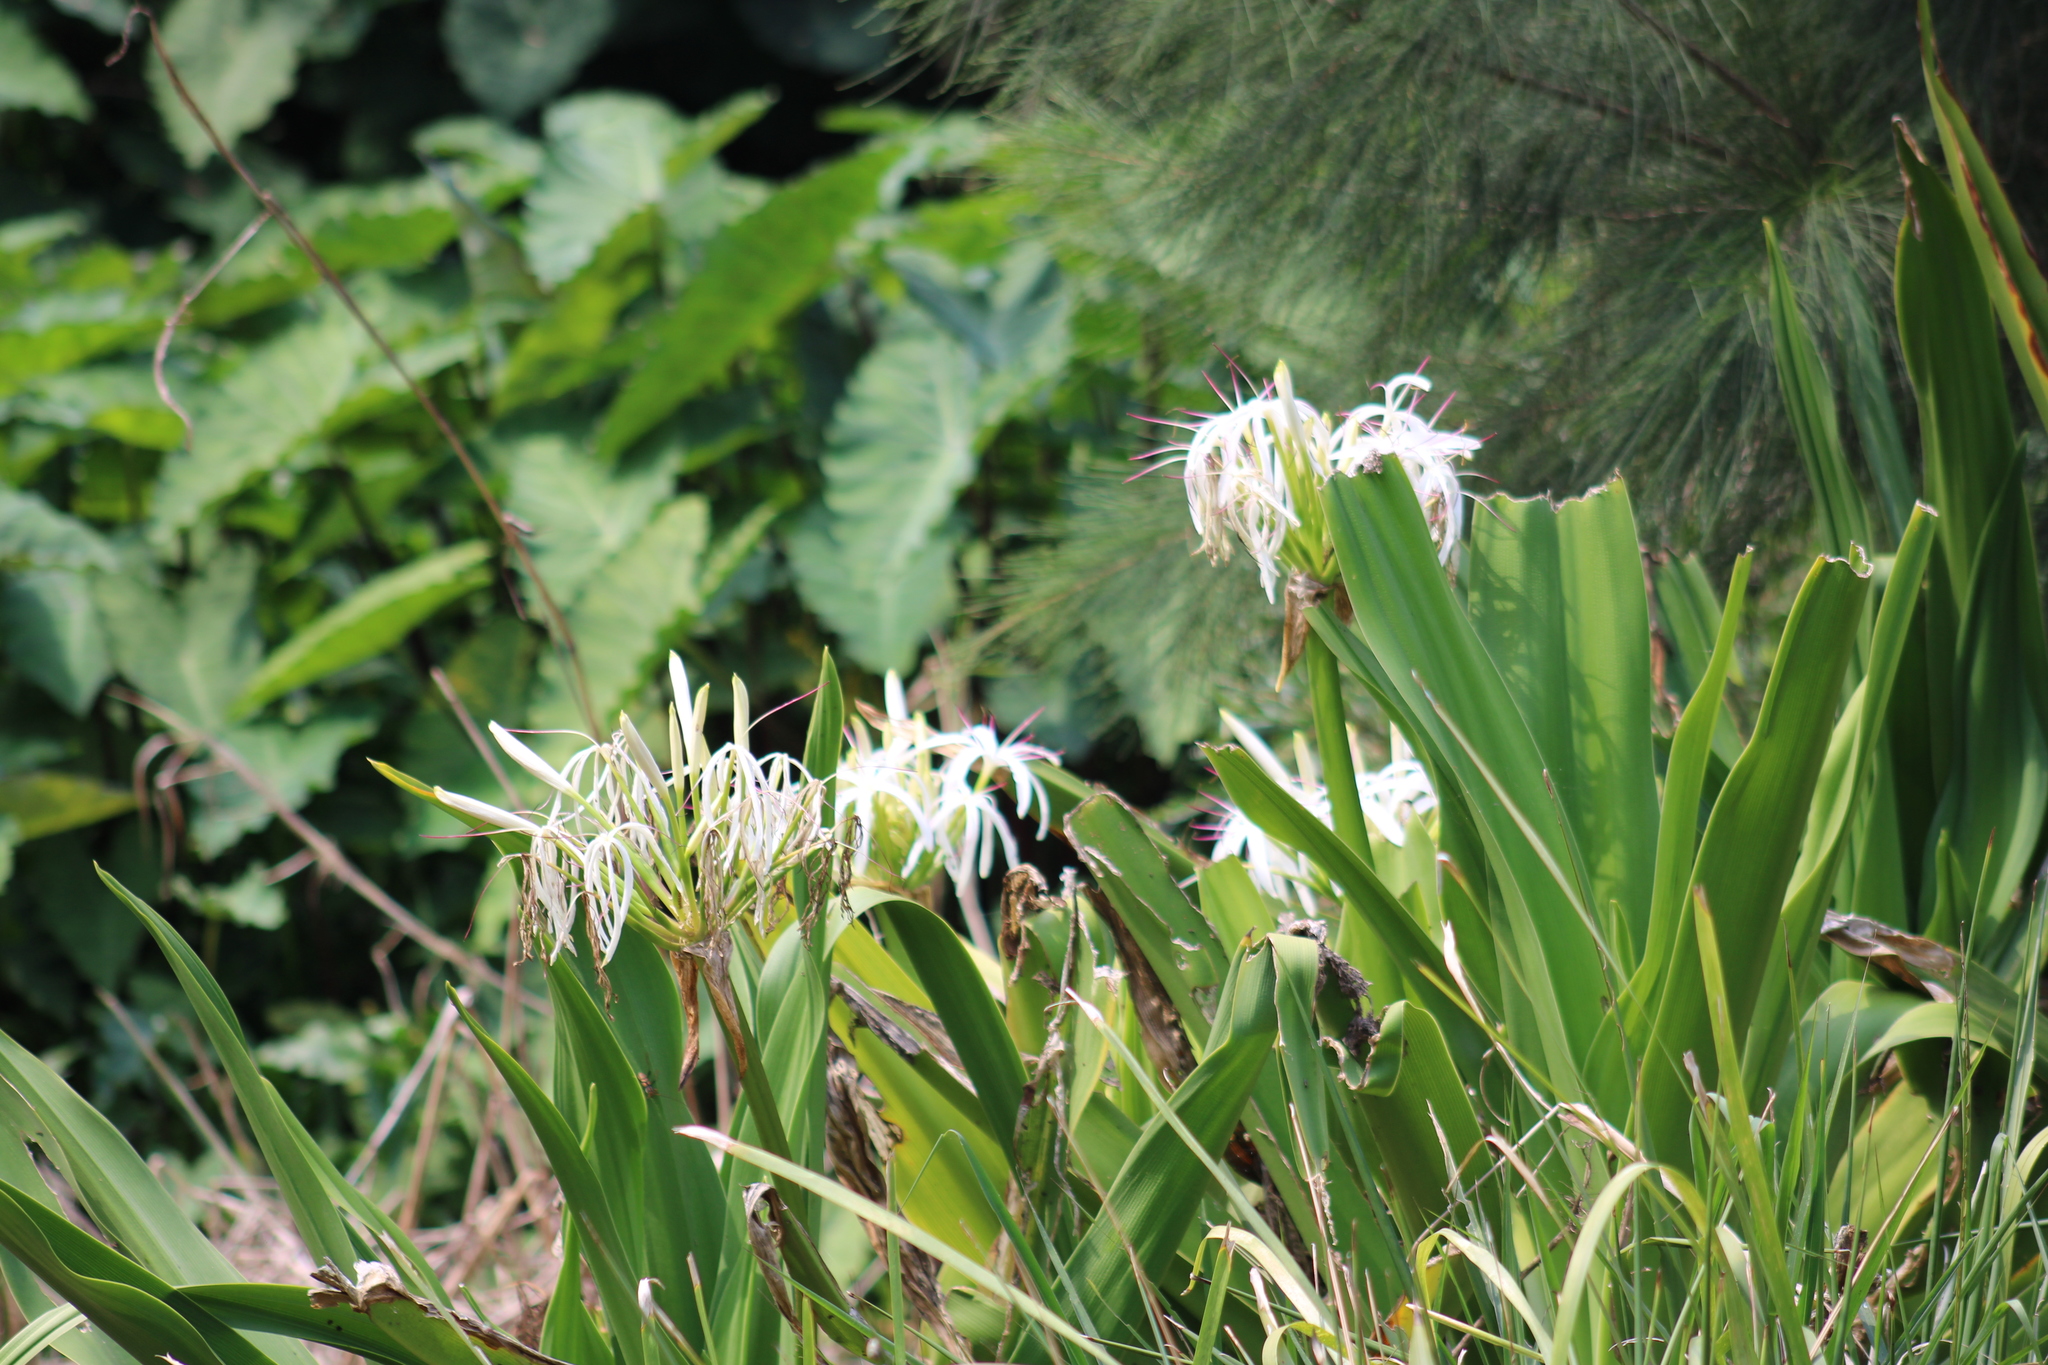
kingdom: Plantae
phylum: Tracheophyta
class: Liliopsida
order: Asparagales
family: Amaryllidaceae
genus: Crinum
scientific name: Crinum pedunculatum
